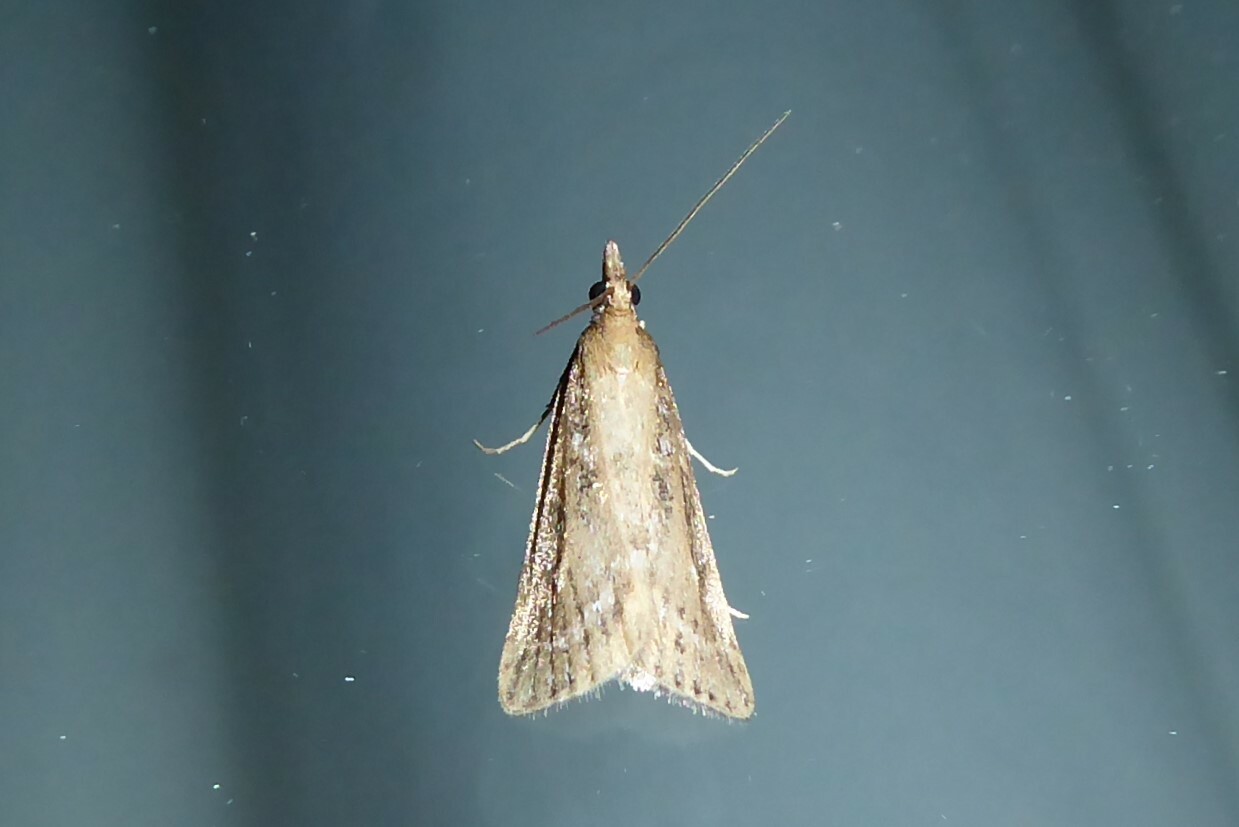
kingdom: Animalia
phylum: Arthropoda
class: Insecta
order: Lepidoptera
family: Crambidae
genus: Eudonia
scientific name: Eudonia octophora
